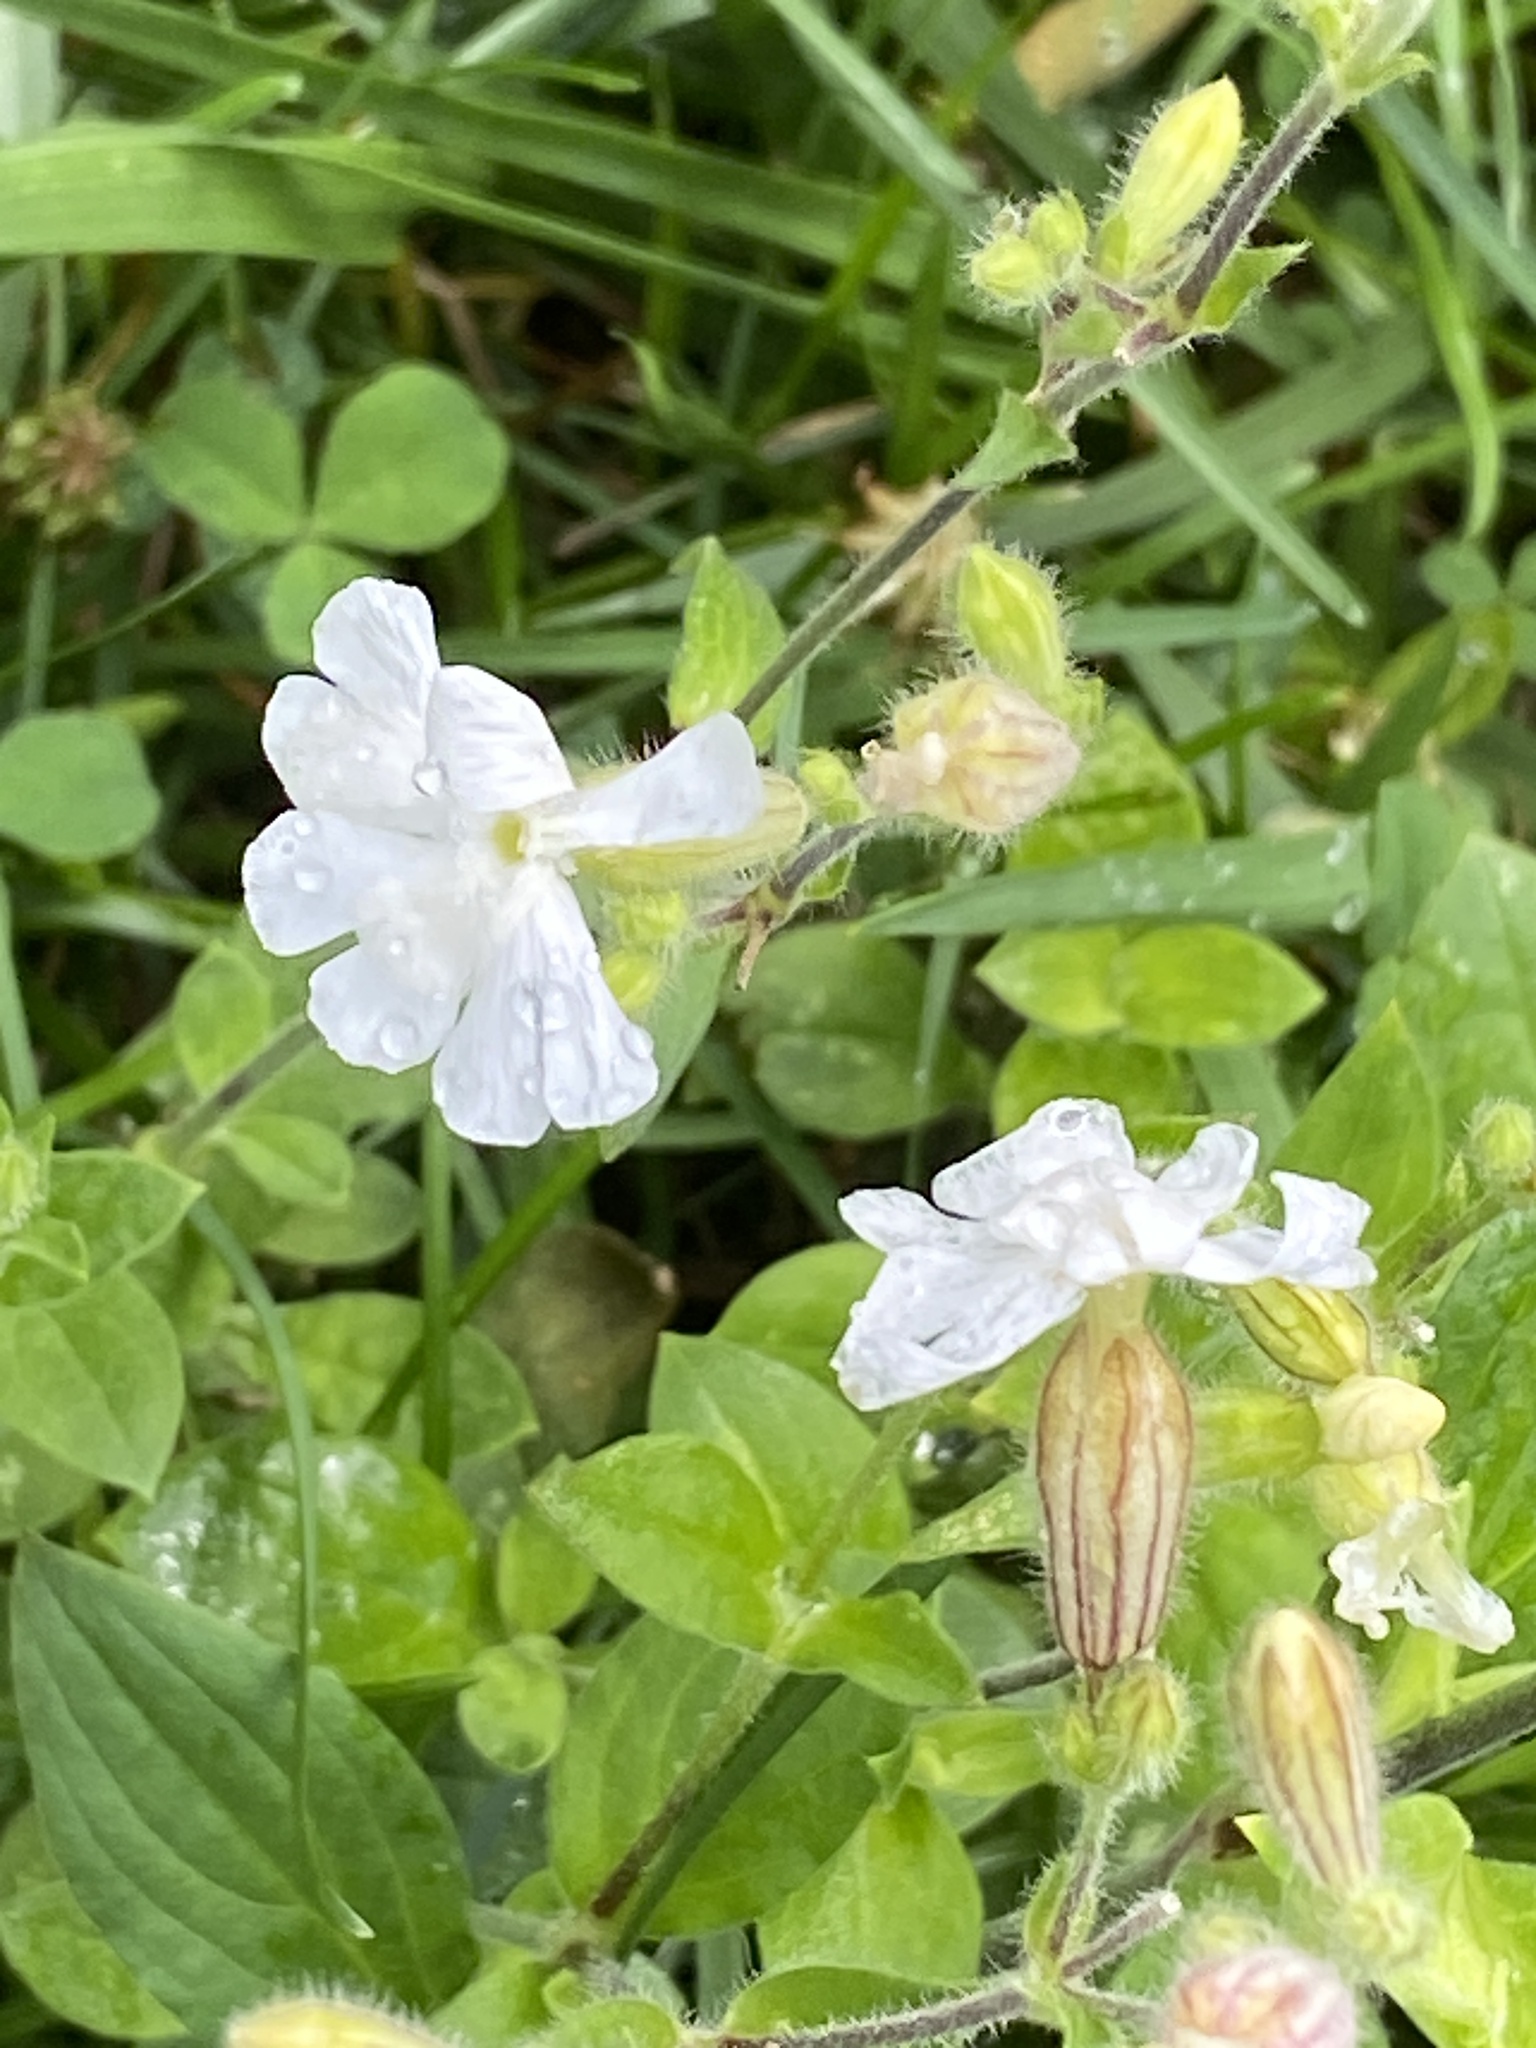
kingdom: Plantae
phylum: Tracheophyta
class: Magnoliopsida
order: Caryophyllales
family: Caryophyllaceae
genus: Silene
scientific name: Silene latifolia
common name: White campion
